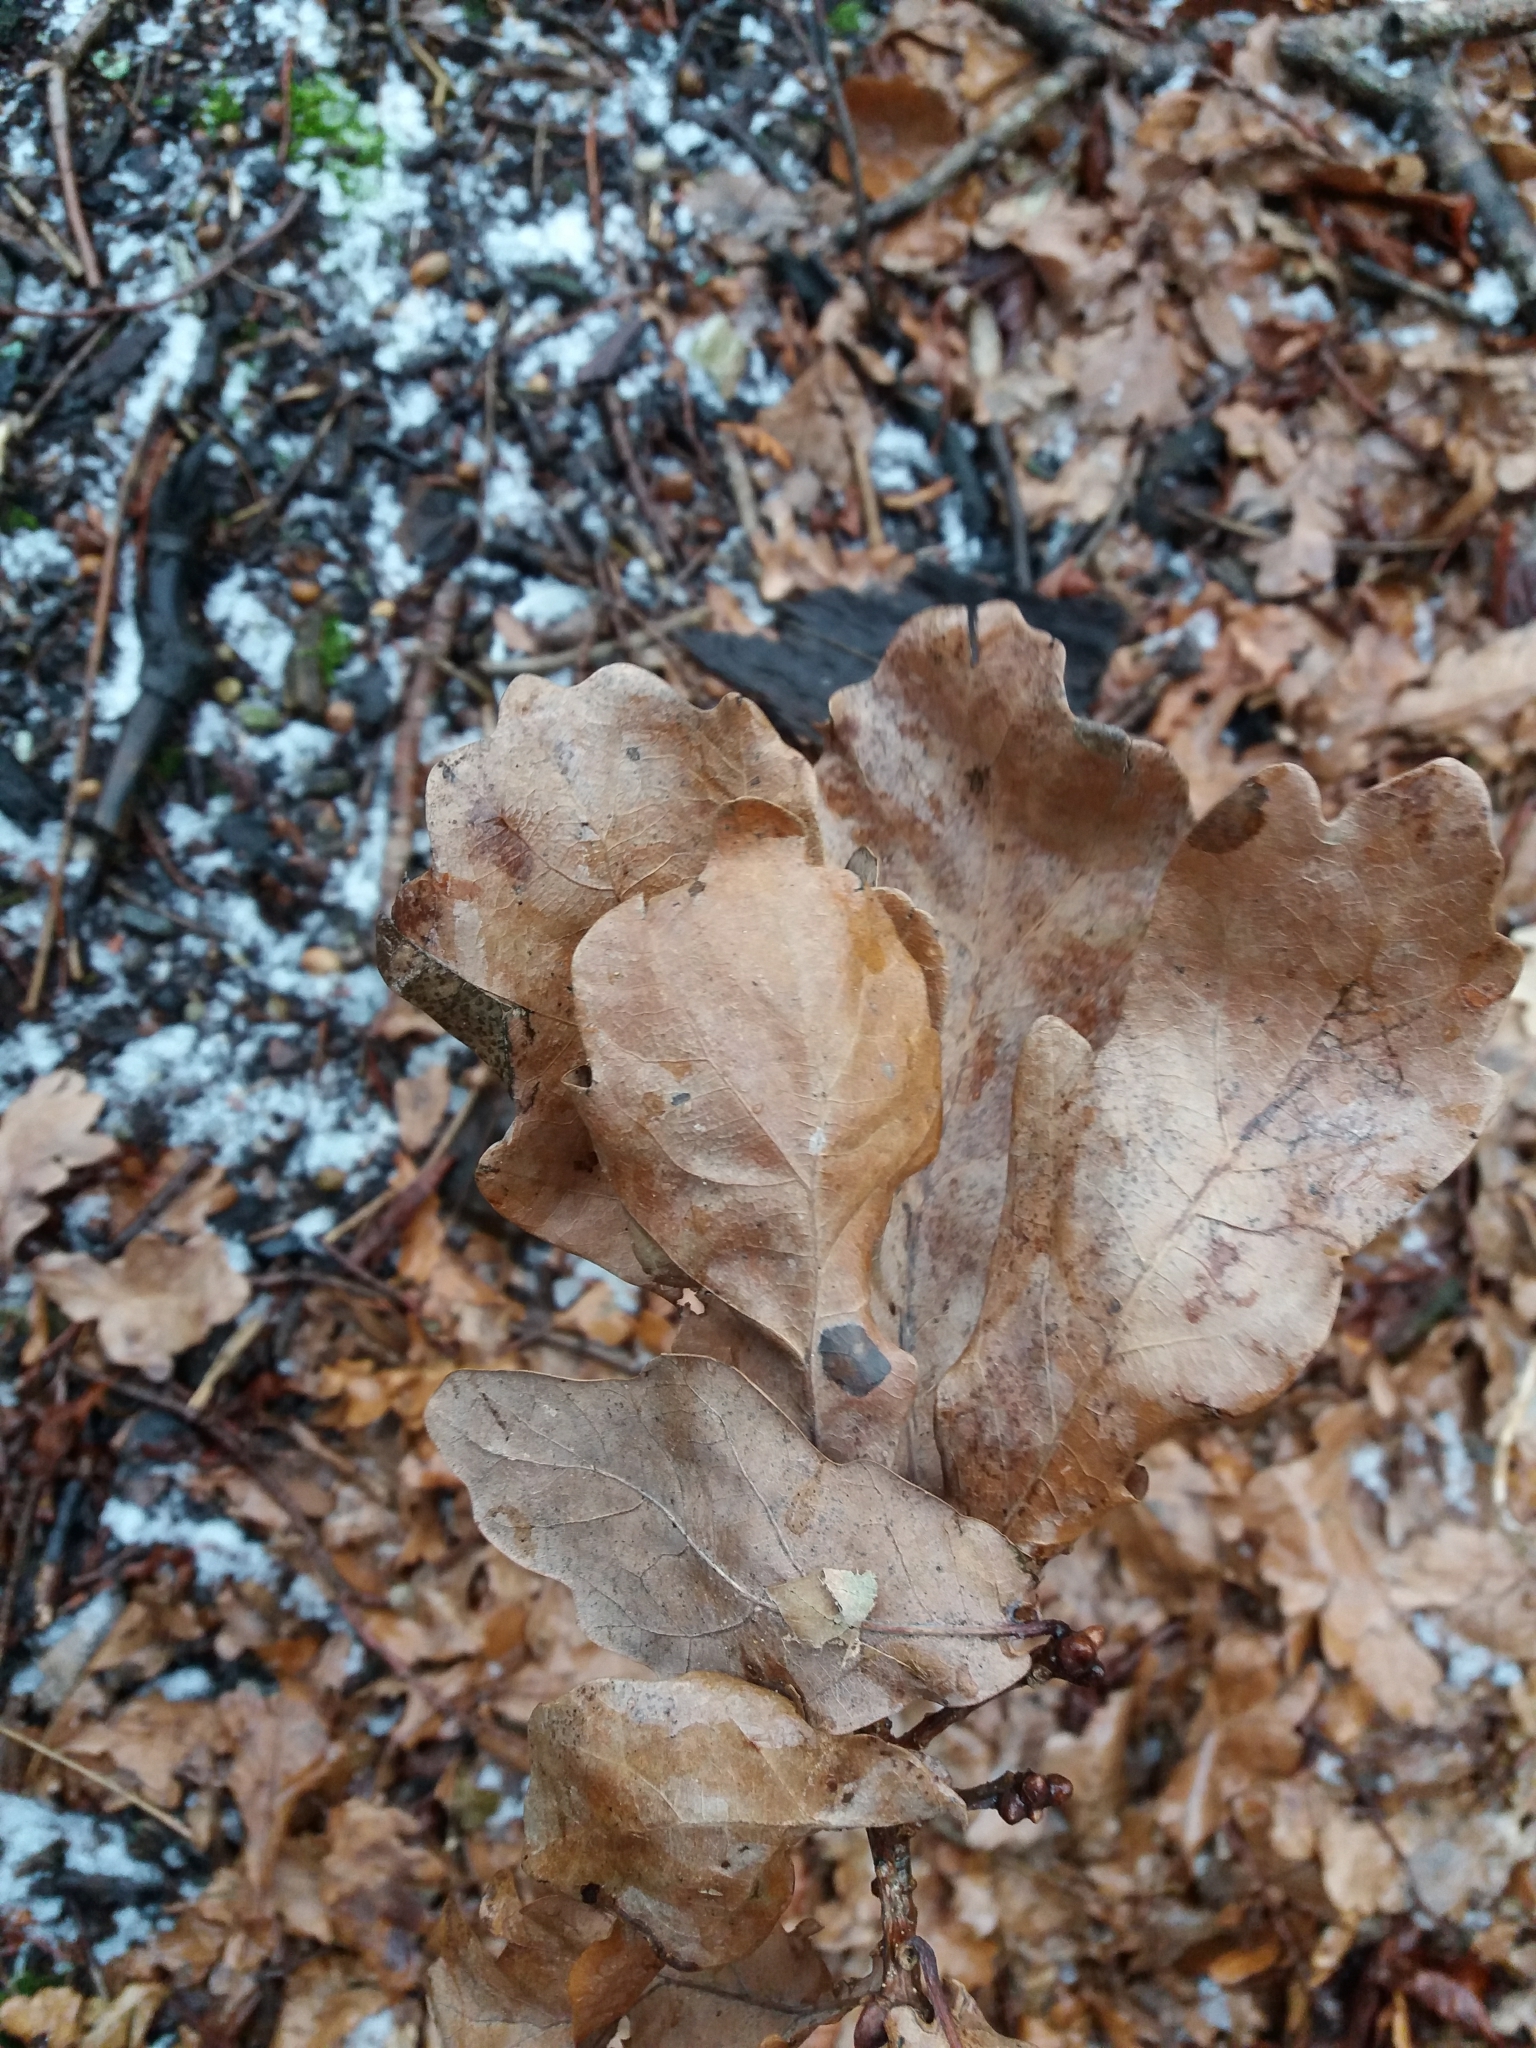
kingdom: Plantae
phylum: Tracheophyta
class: Magnoliopsida
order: Fagales
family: Fagaceae
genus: Quercus
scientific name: Quercus robur
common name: Pedunculate oak
